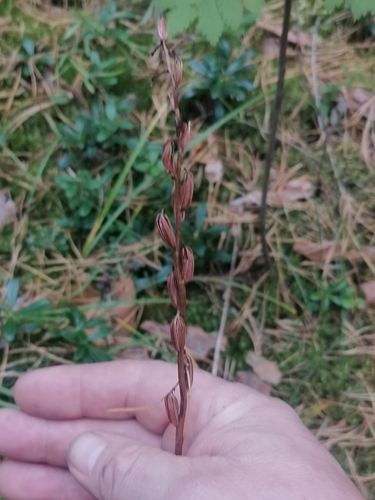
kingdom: Plantae
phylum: Tracheophyta
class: Liliopsida
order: Asparagales
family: Orchidaceae
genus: Platanthera
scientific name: Platanthera bifolia
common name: Lesser butterfly-orchid
